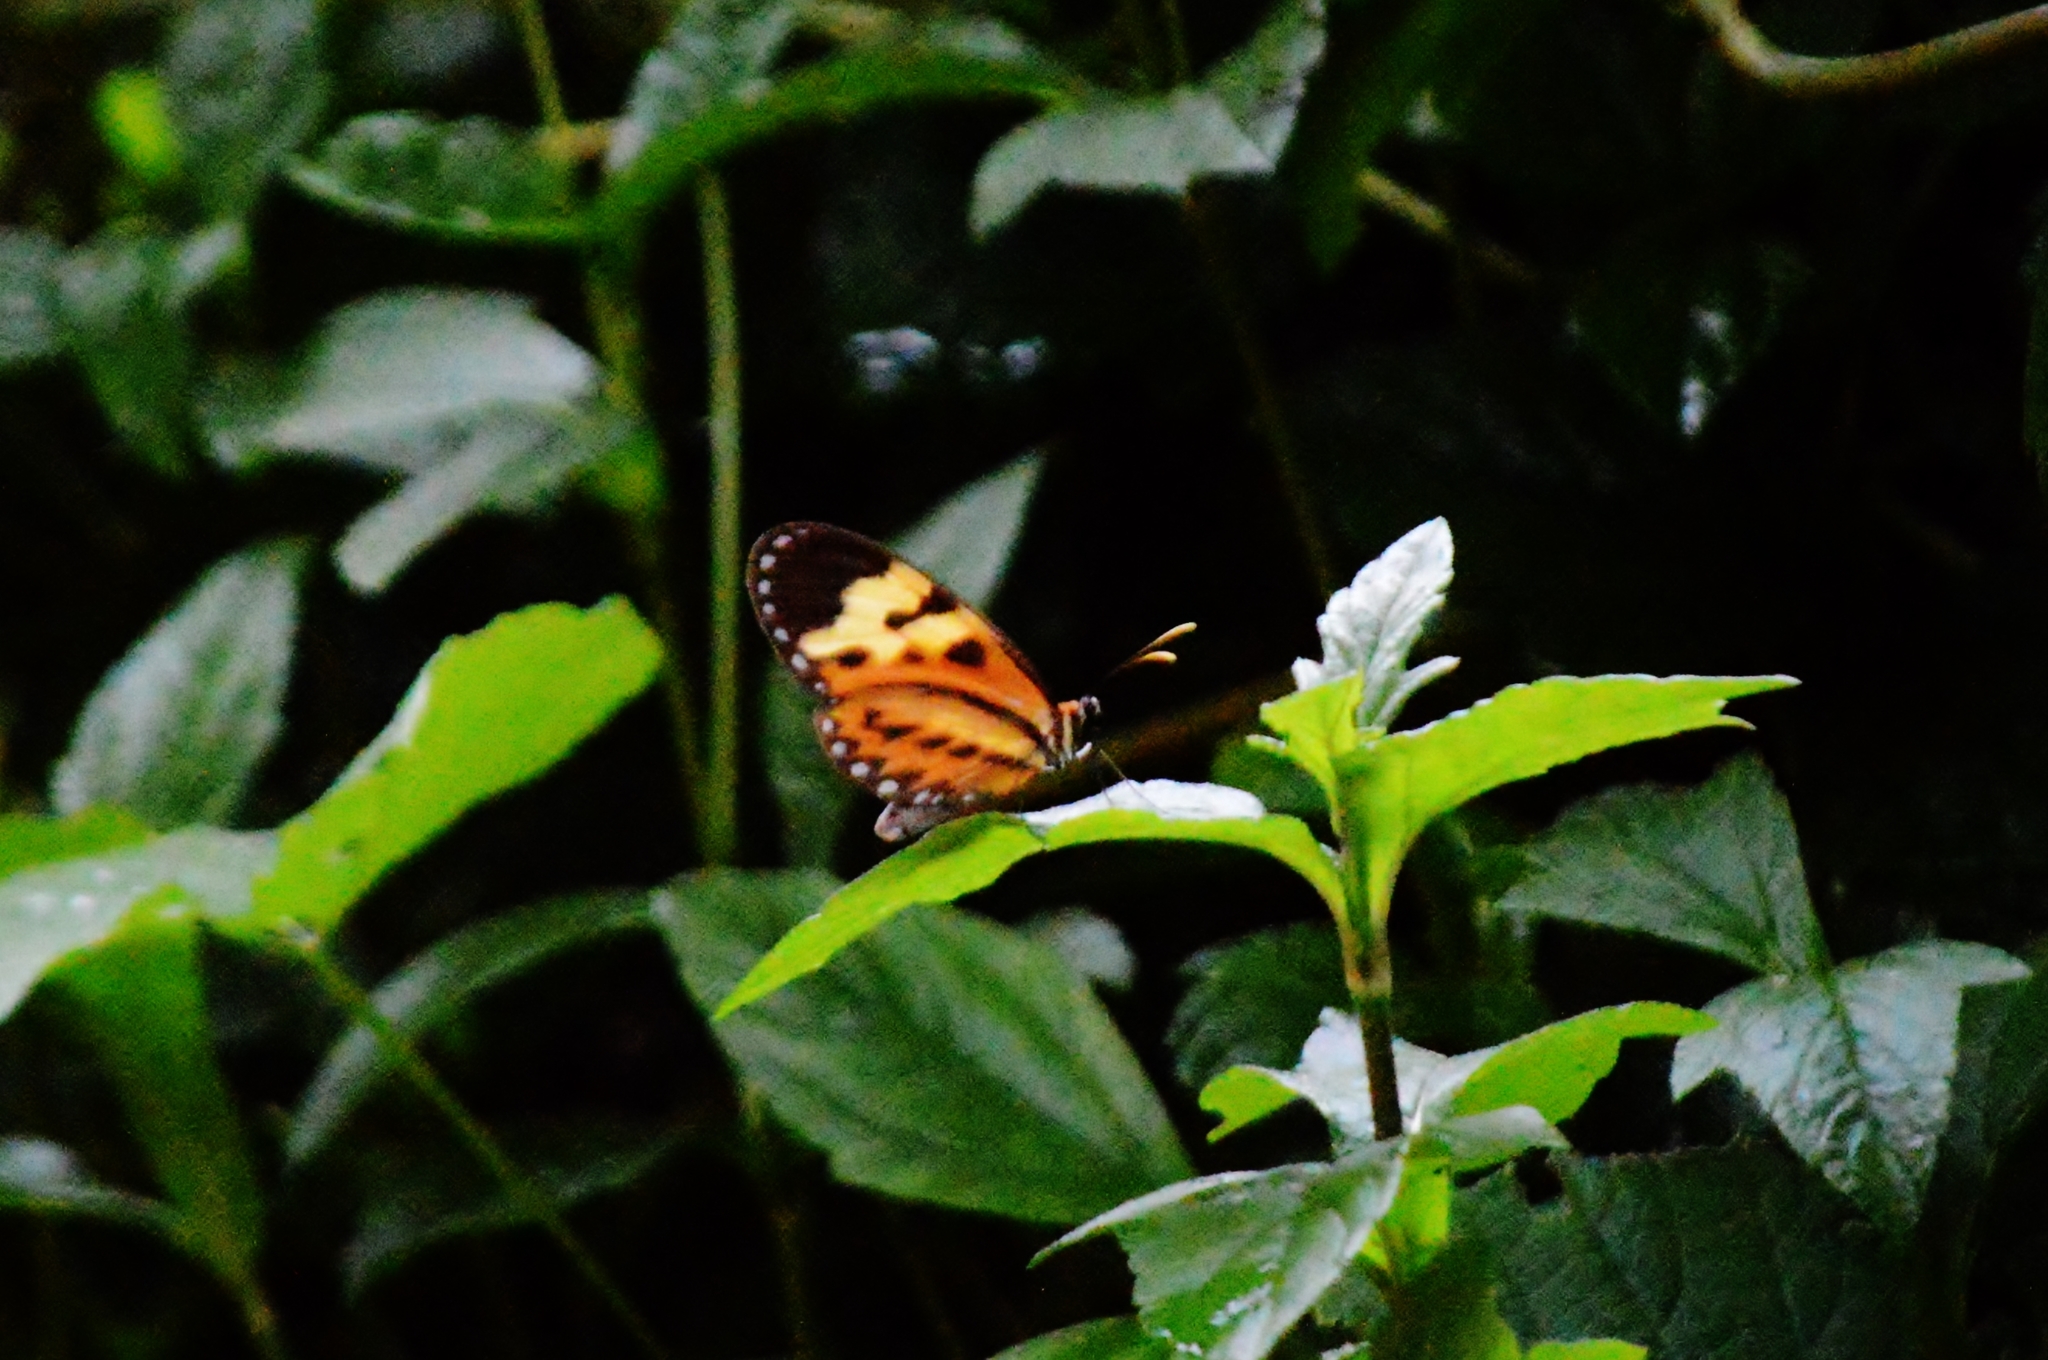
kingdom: Animalia
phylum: Arthropoda
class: Insecta
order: Lepidoptera
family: Nymphalidae
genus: Mechanitis
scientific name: Mechanitis polymnia
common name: Disturbed tigerwing
